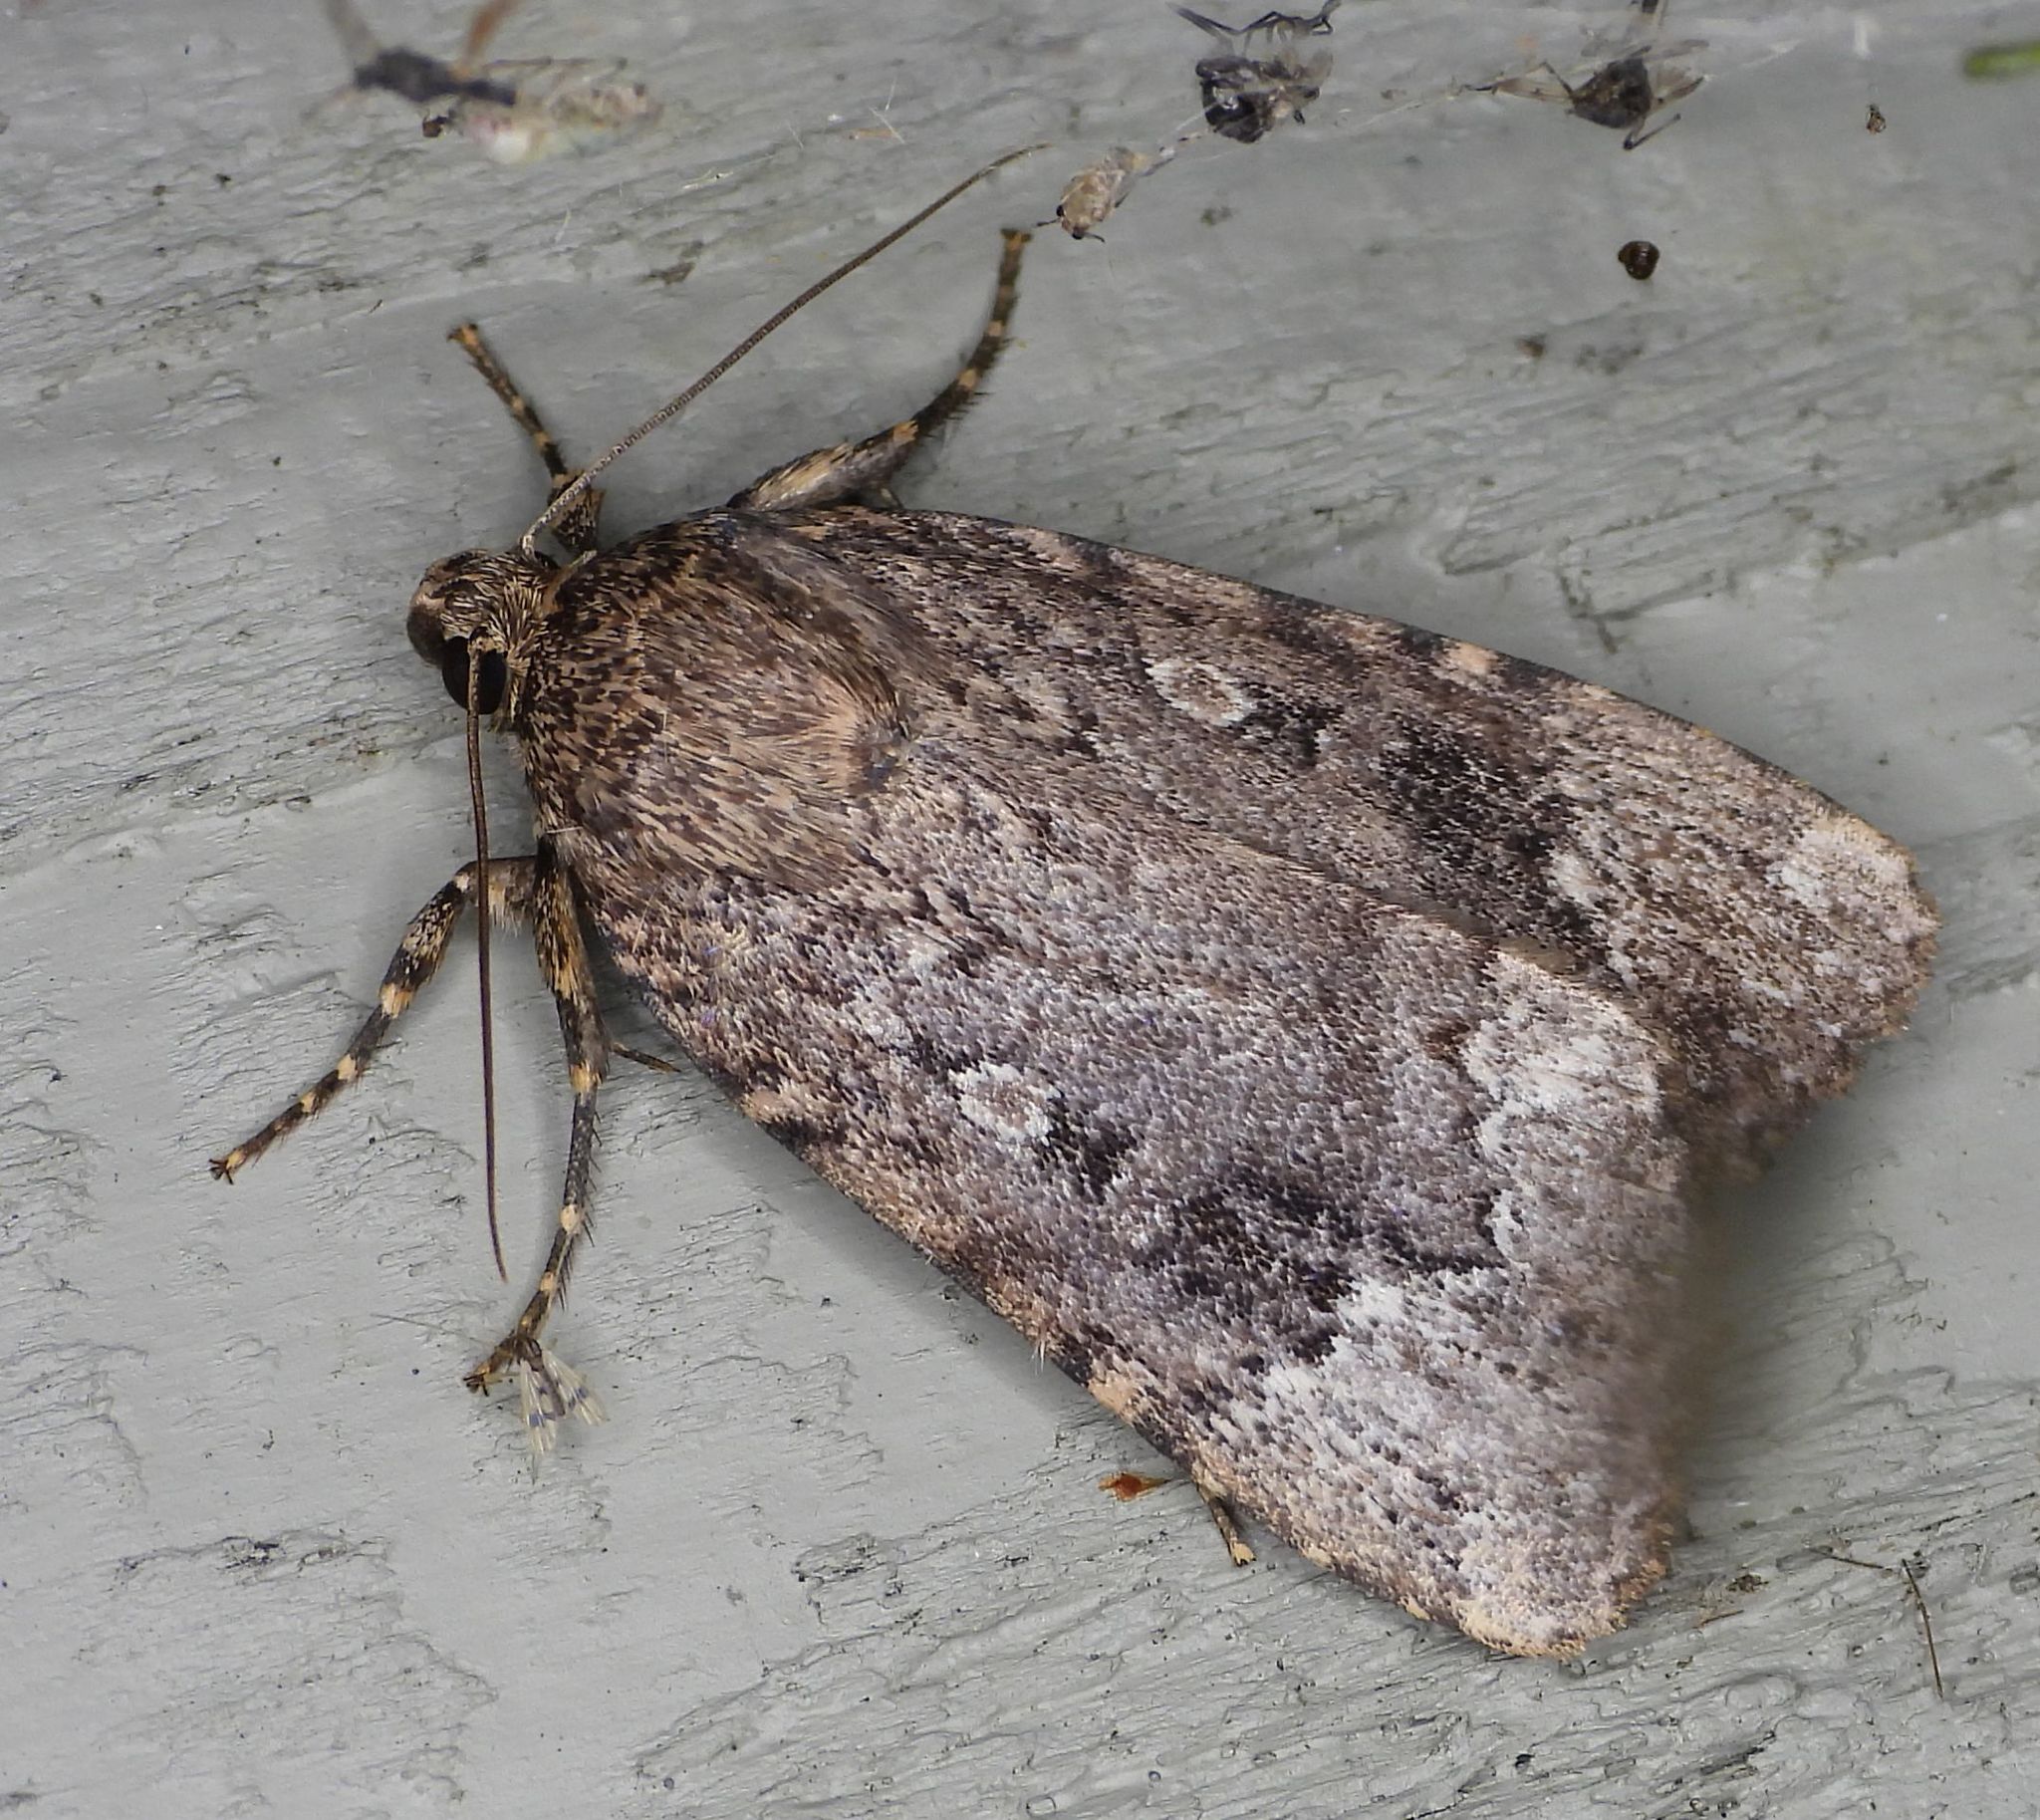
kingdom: Animalia
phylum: Arthropoda
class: Insecta
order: Lepidoptera
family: Noctuidae
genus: Amphipyra
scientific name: Amphipyra pyramidoides
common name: American copper underwing
